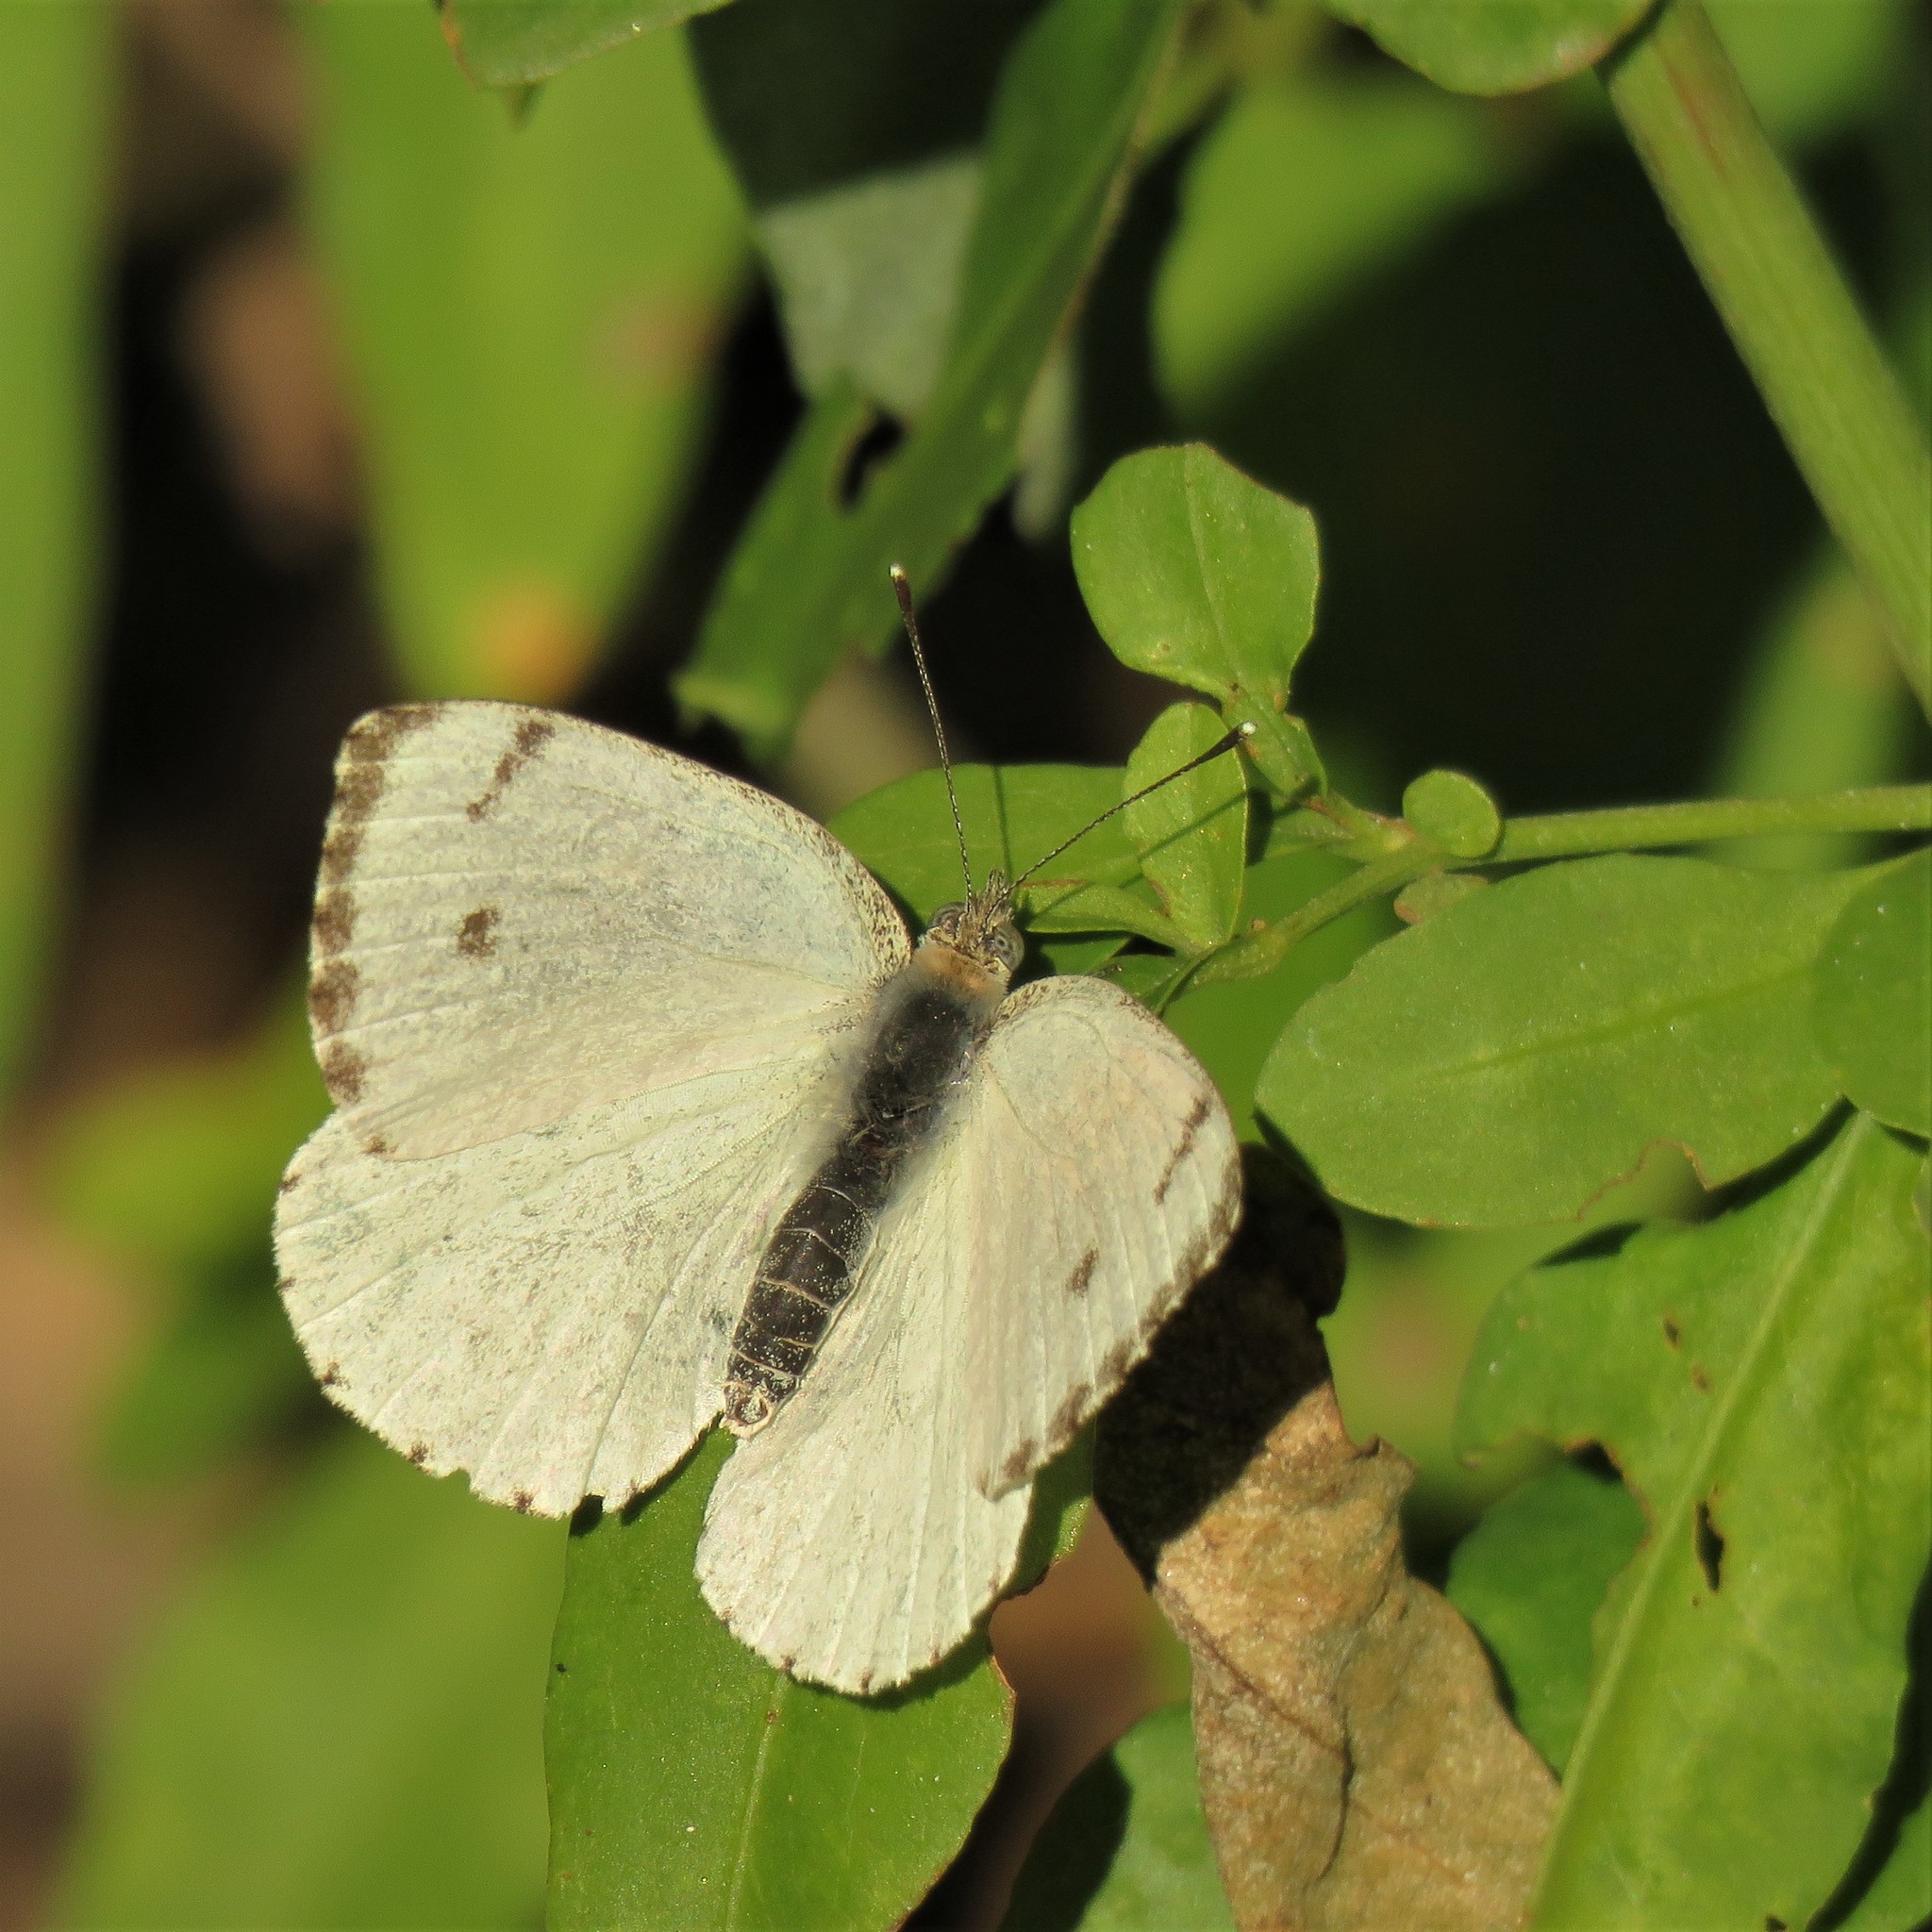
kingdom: Animalia
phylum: Arthropoda
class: Insecta
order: Lepidoptera
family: Pieridae
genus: Dixeia
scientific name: Dixeia charina
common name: African small white
